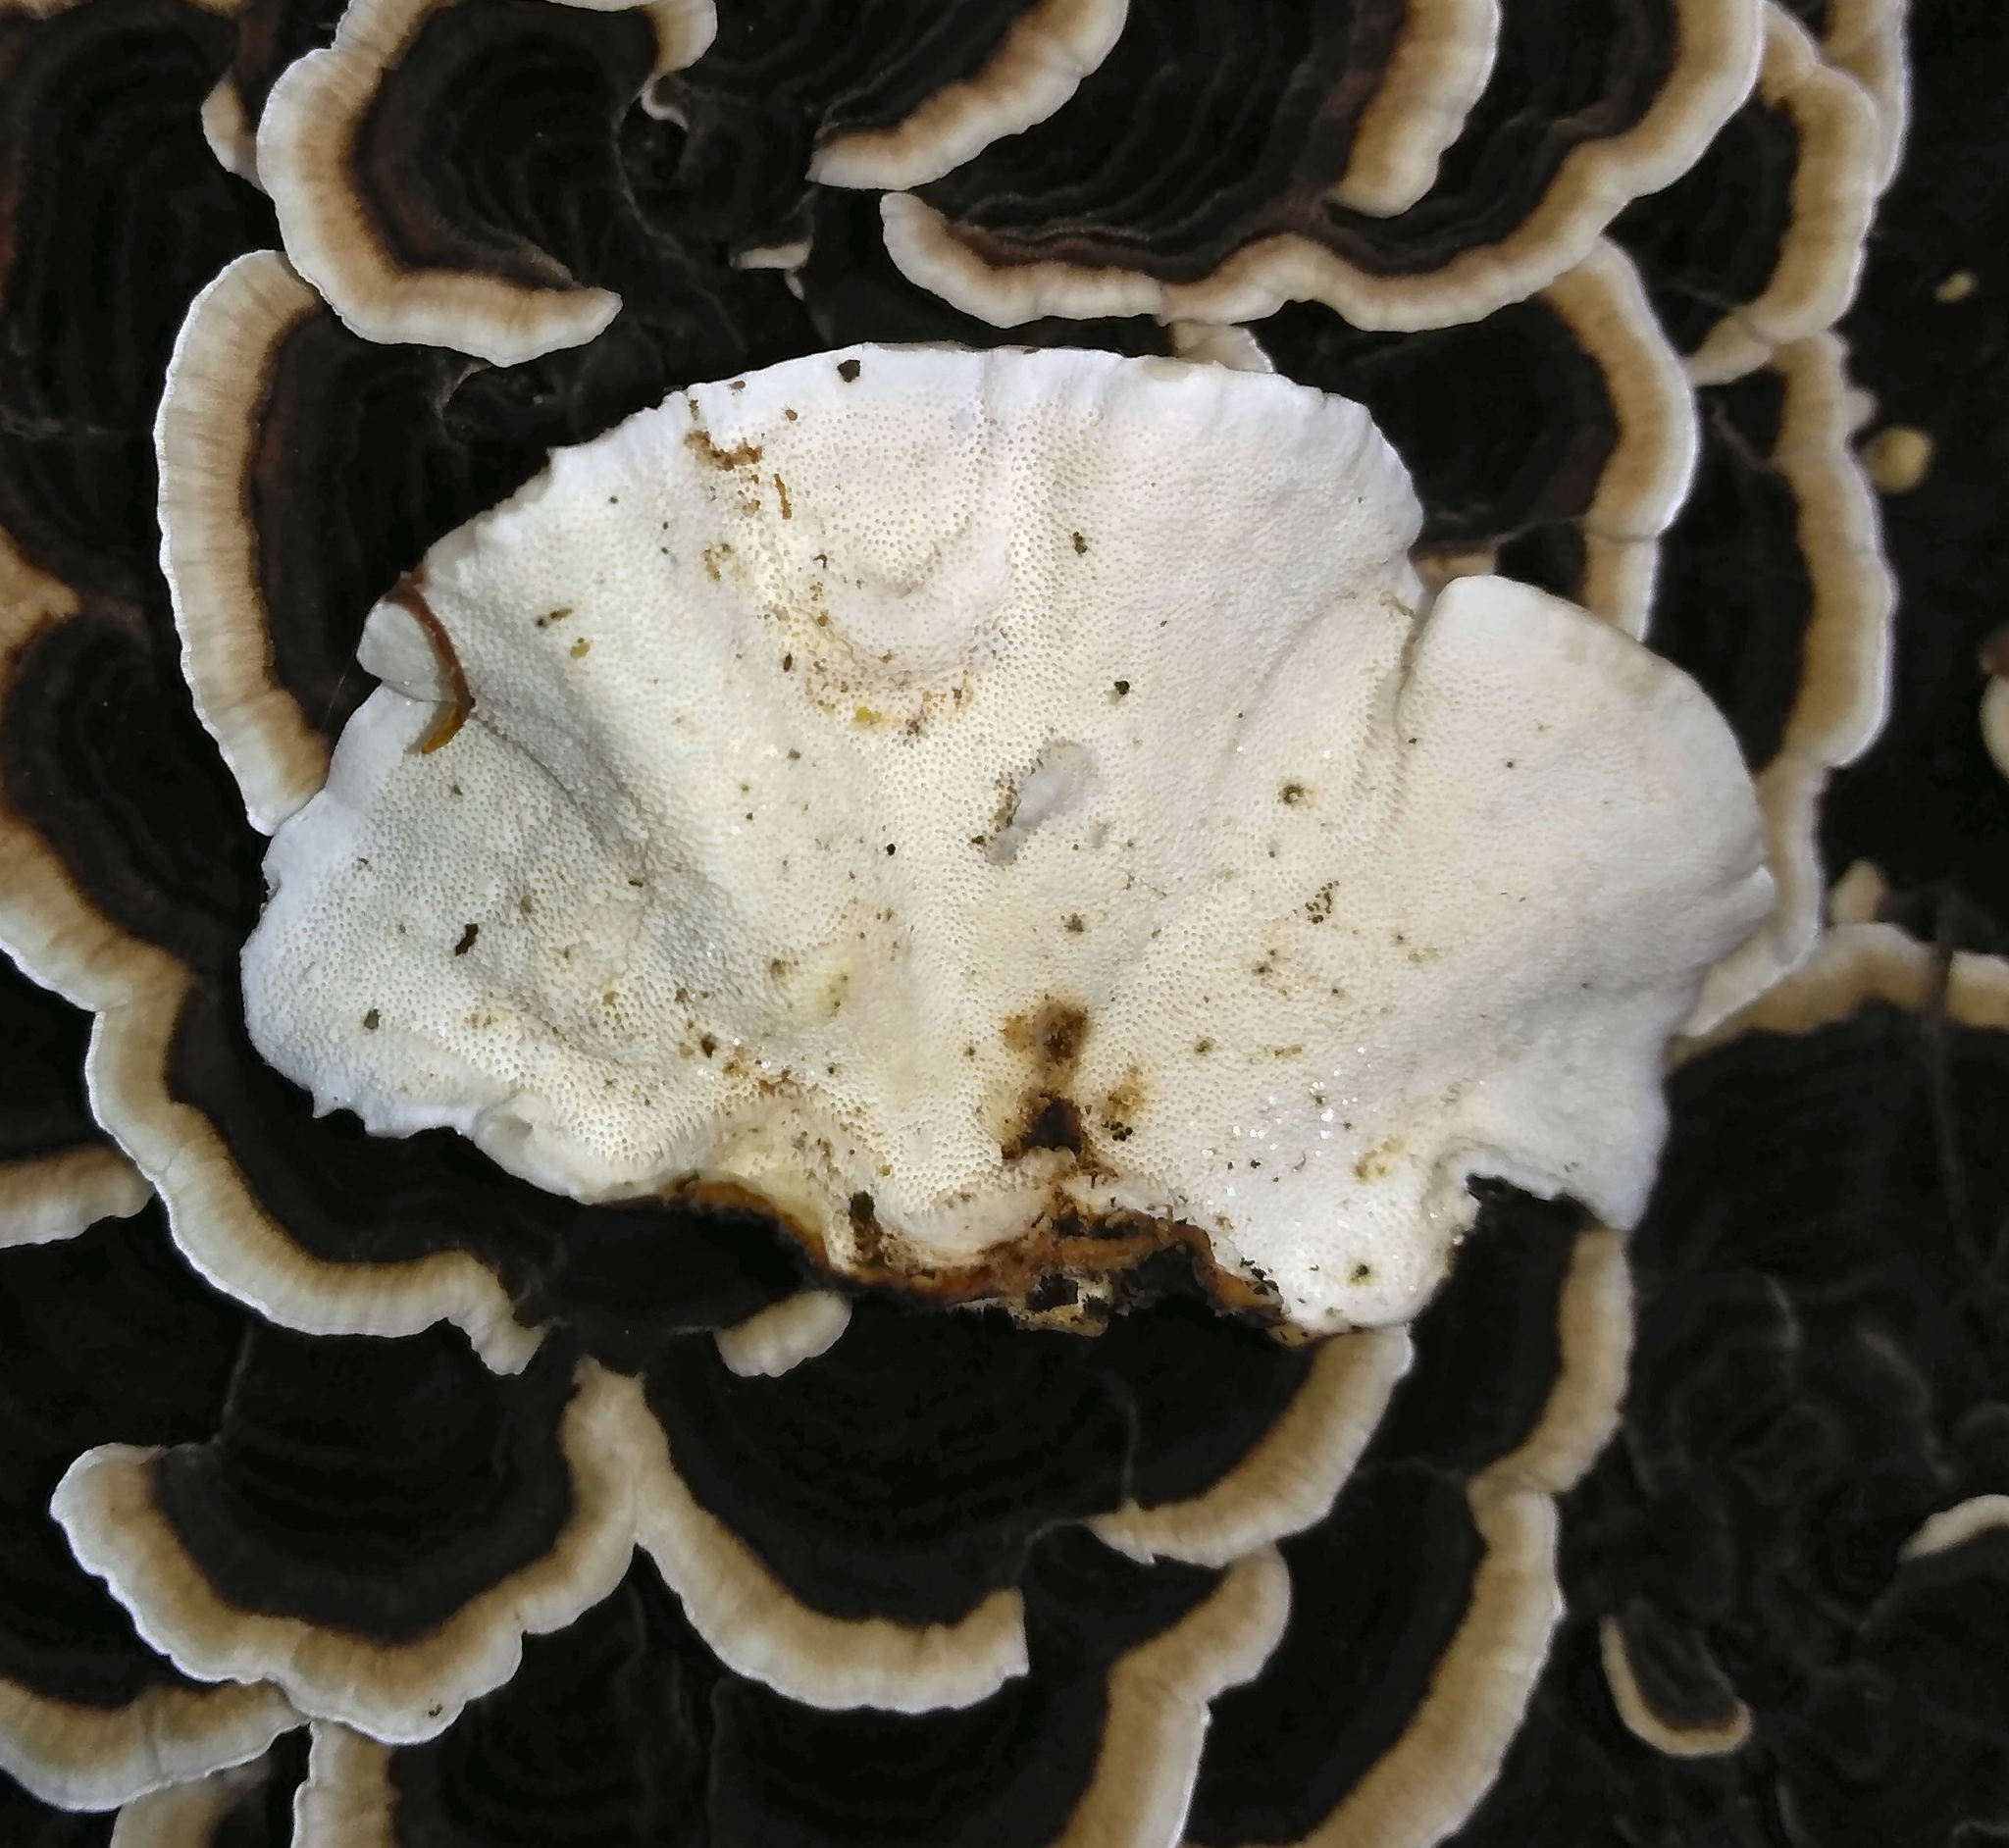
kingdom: Fungi
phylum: Basidiomycota
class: Agaricomycetes
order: Polyporales
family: Polyporaceae
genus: Trametes
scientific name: Trametes versicolor
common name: Turkeytail
